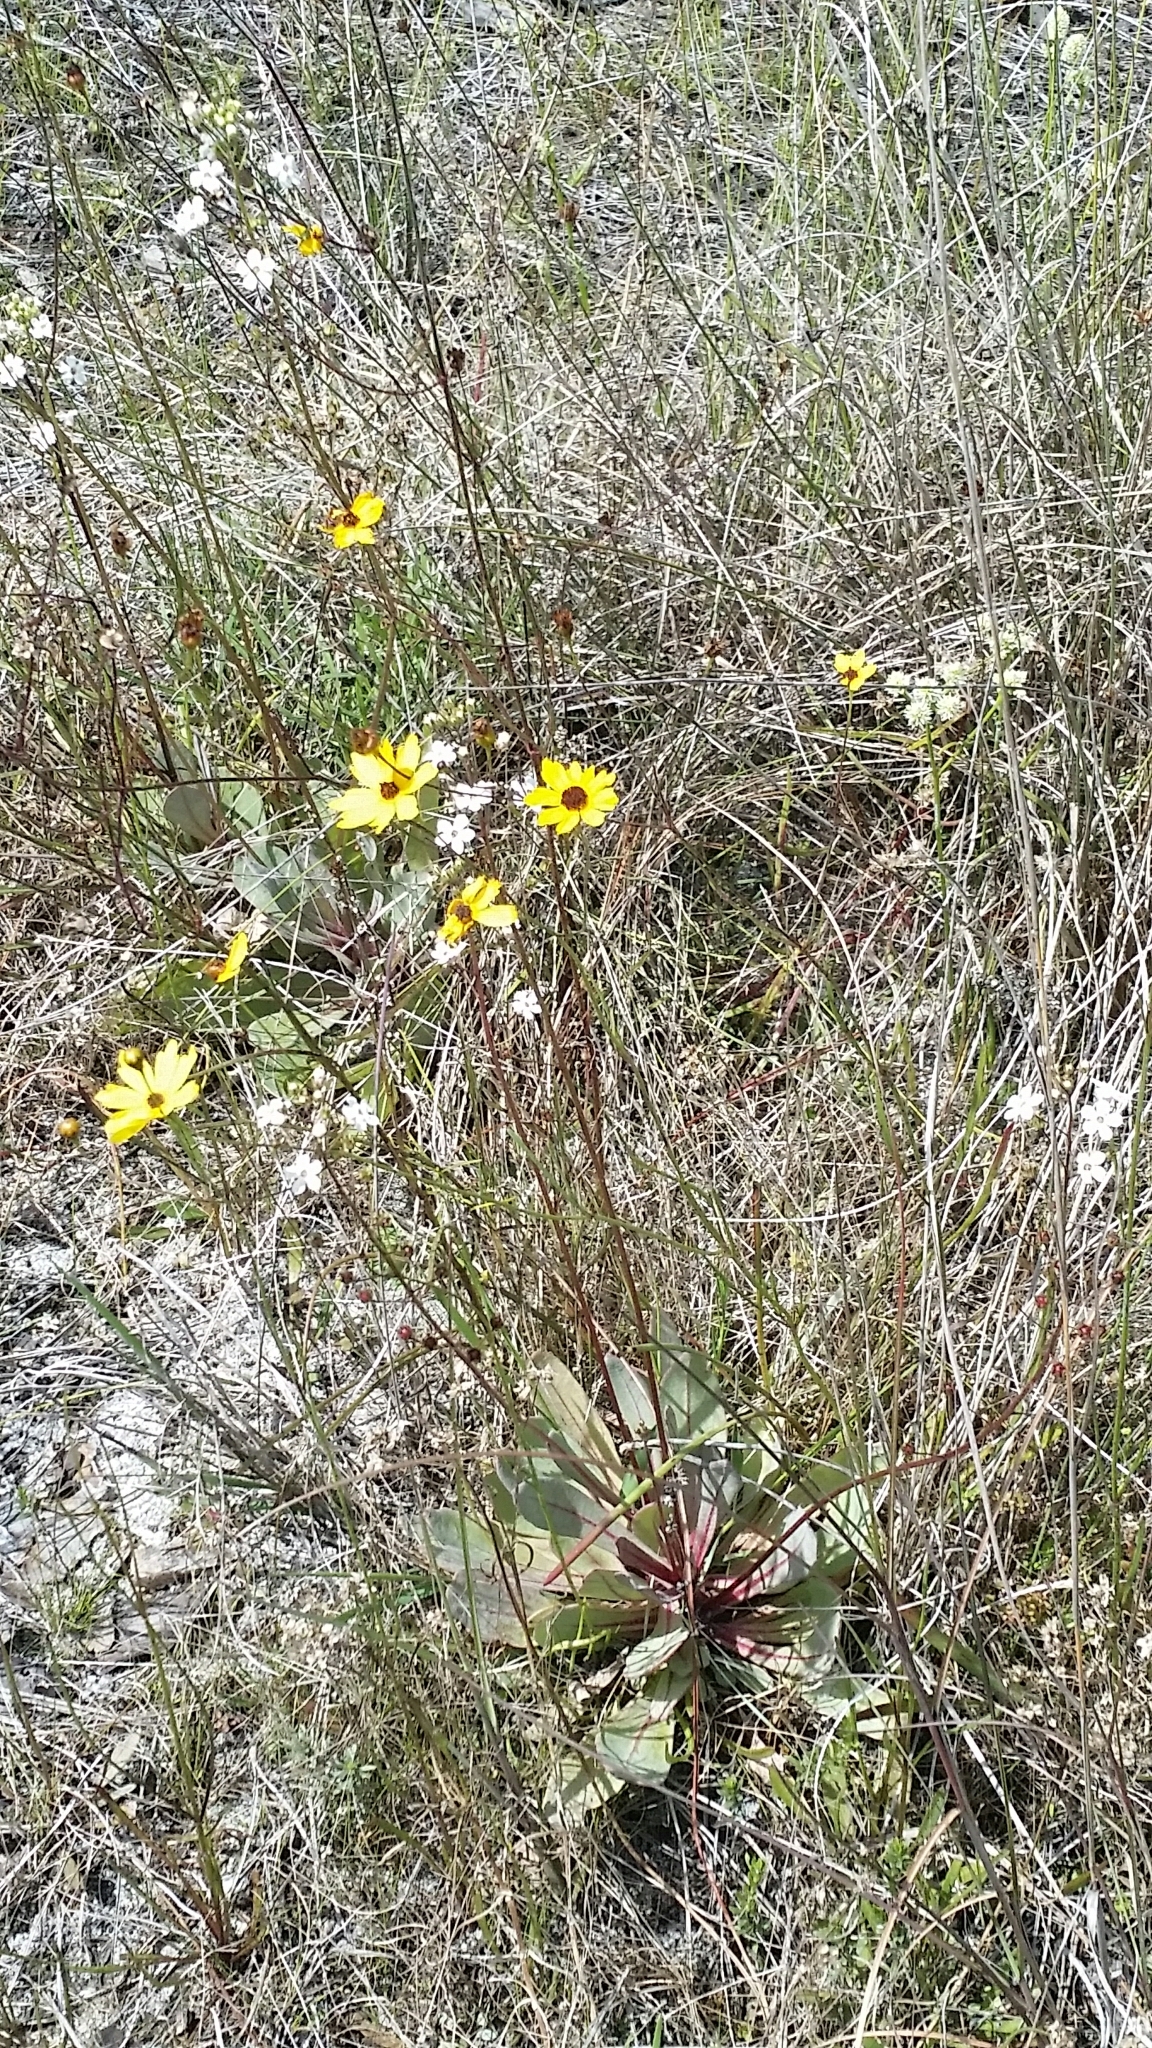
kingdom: Plantae
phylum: Tracheophyta
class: Magnoliopsida
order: Ericales
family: Primulaceae
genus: Samolus
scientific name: Samolus ebracteatus
